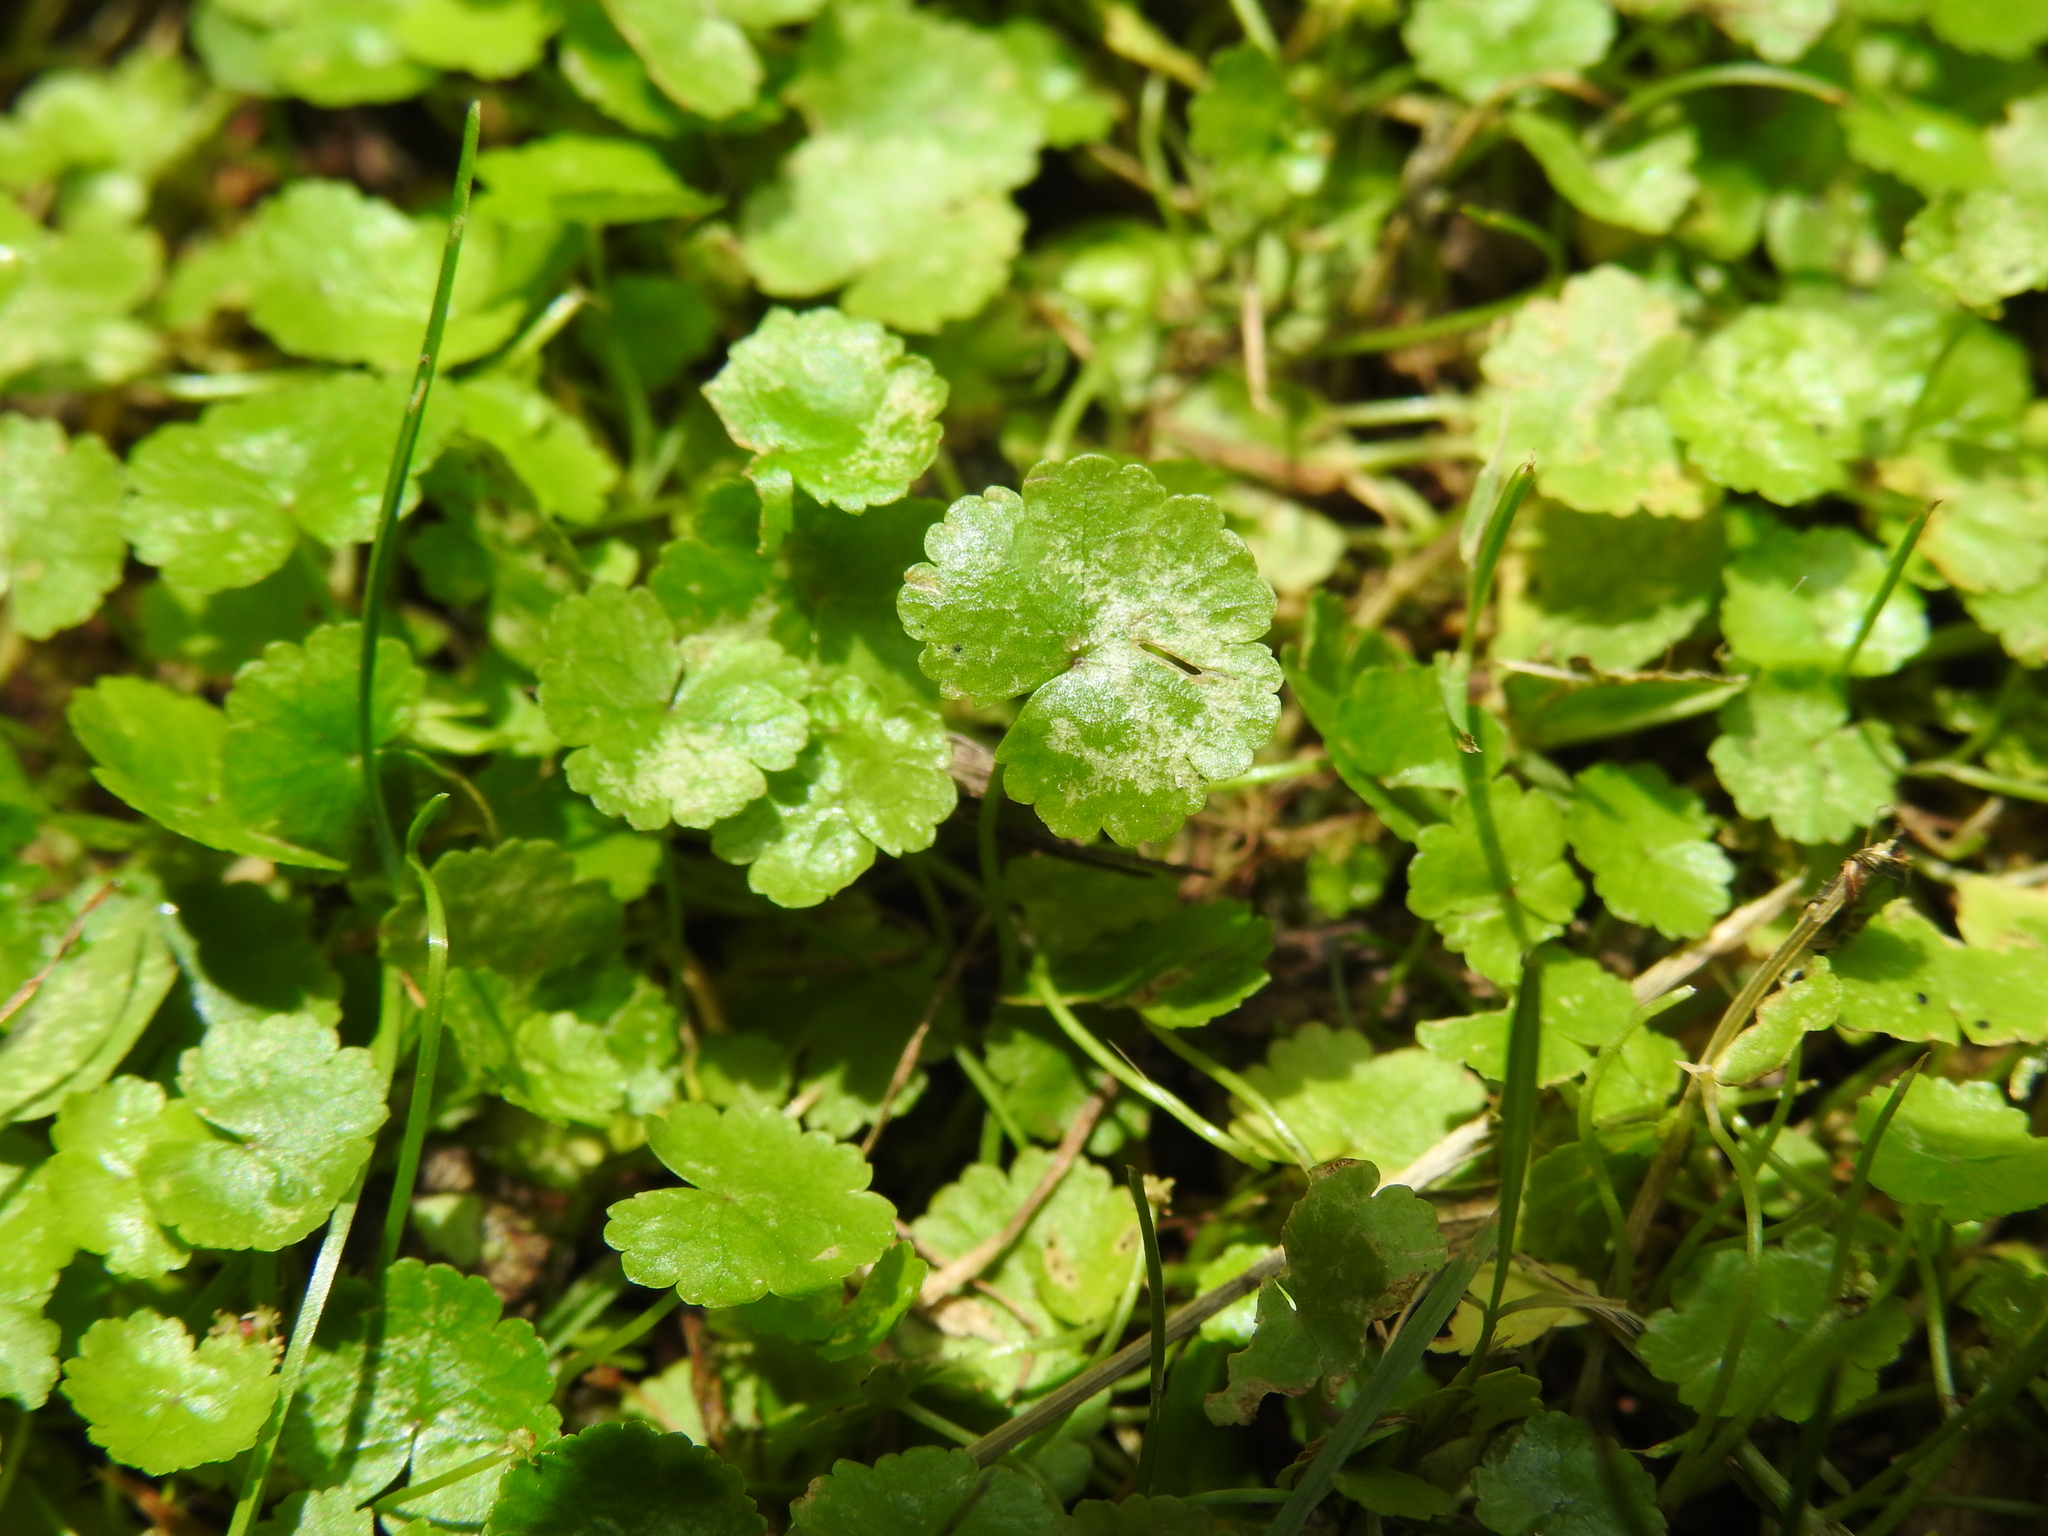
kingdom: Plantae
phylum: Tracheophyta
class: Magnoliopsida
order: Apiales
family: Araliaceae
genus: Hydrocotyle
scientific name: Hydrocotyle sibthorpioides
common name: Lawn marshpennywort
